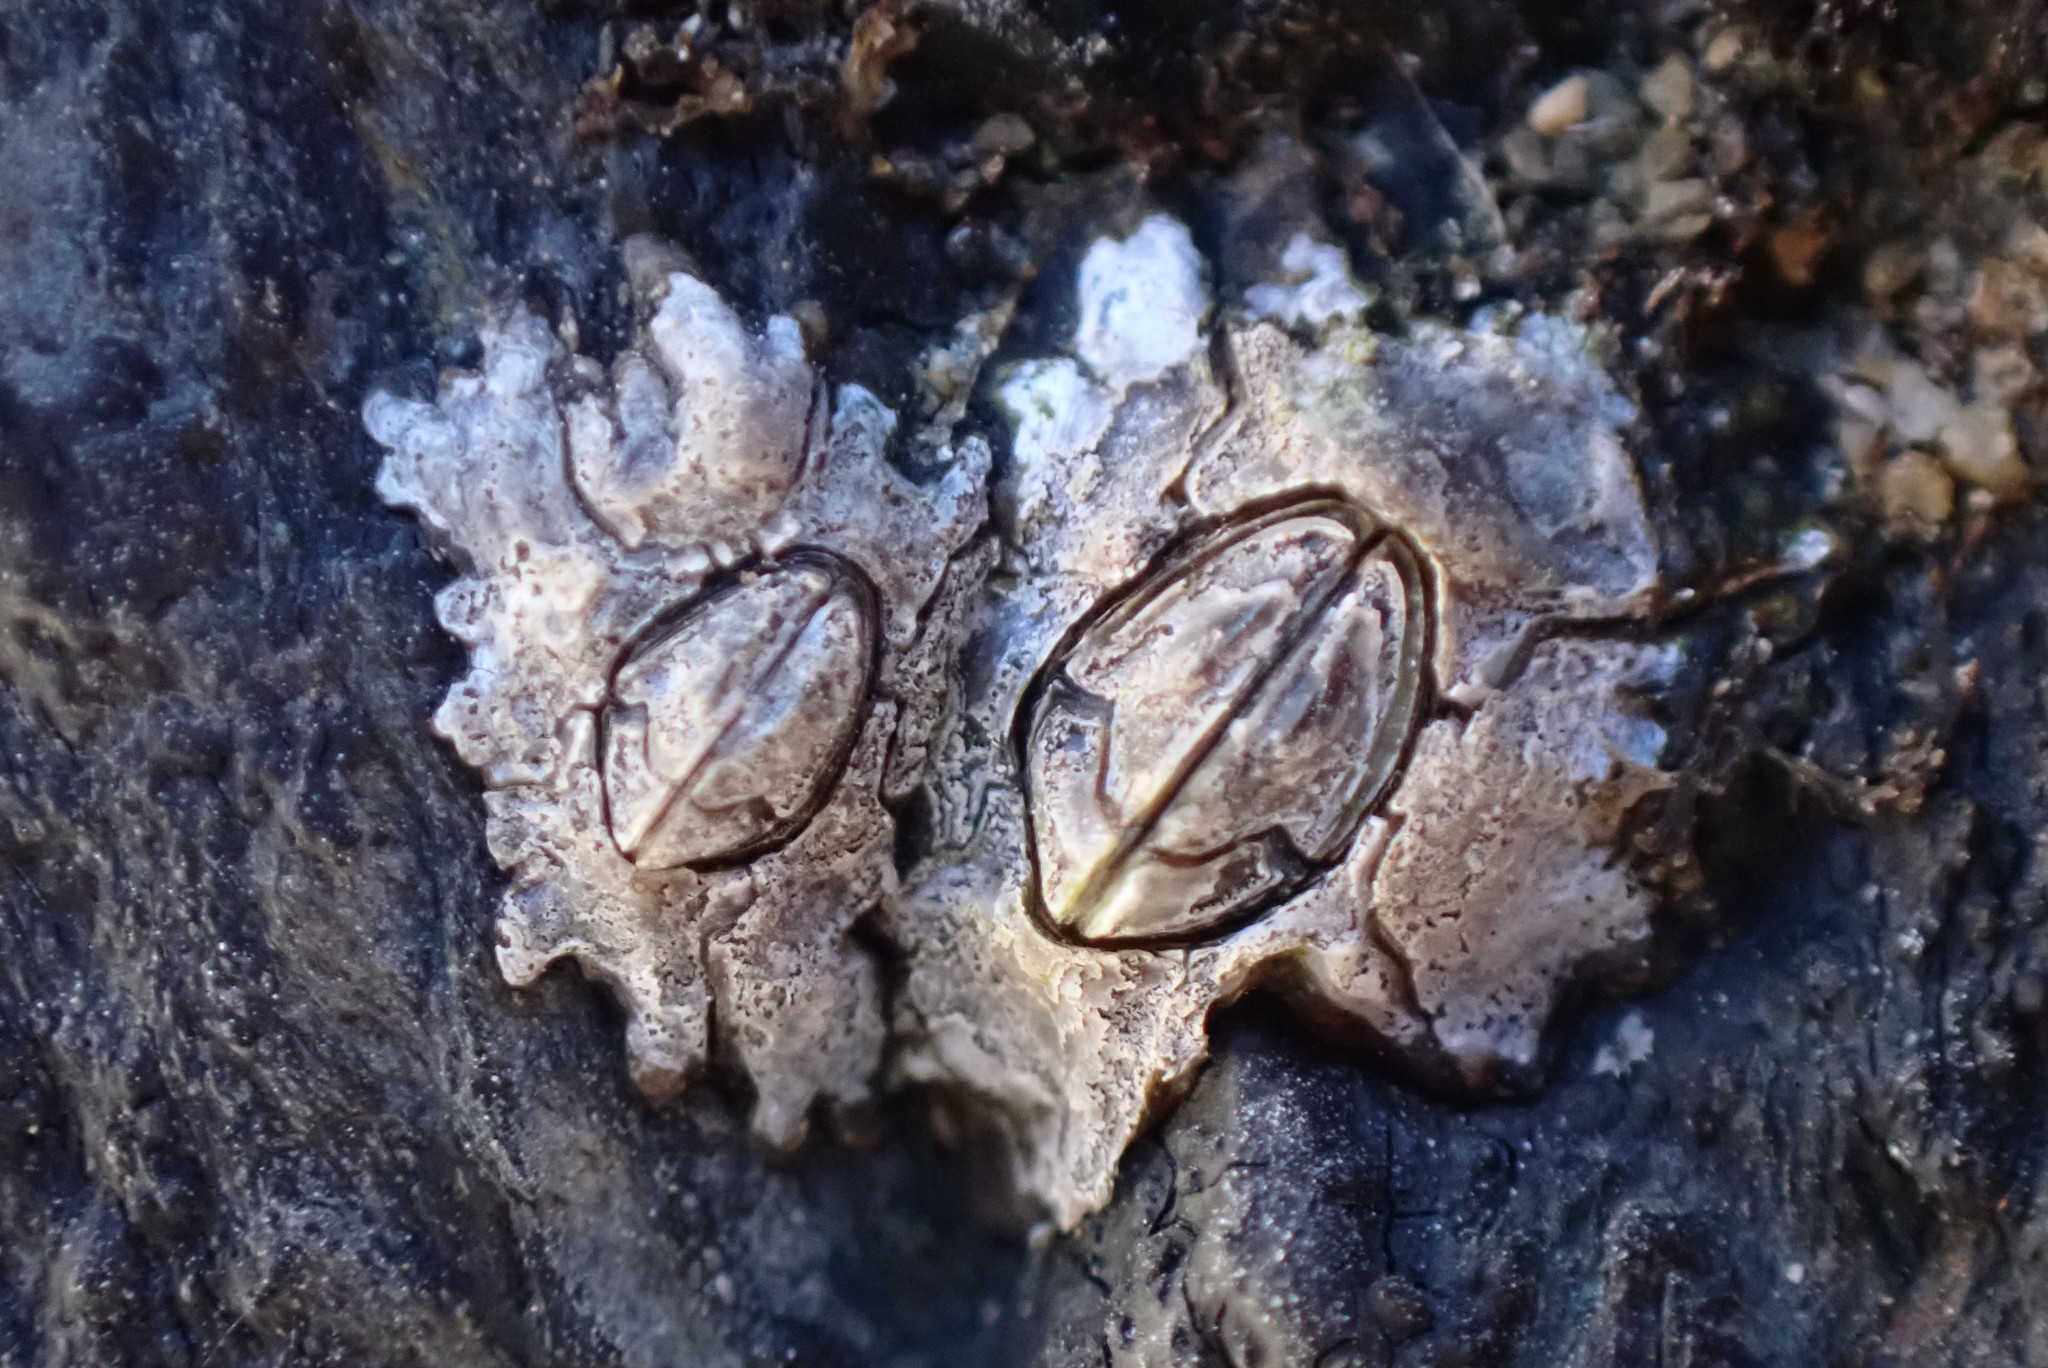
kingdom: Animalia
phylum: Arthropoda
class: Maxillopoda
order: Sessilia
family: Chthamalidae
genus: Jehlius
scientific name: Jehlius cirratus
